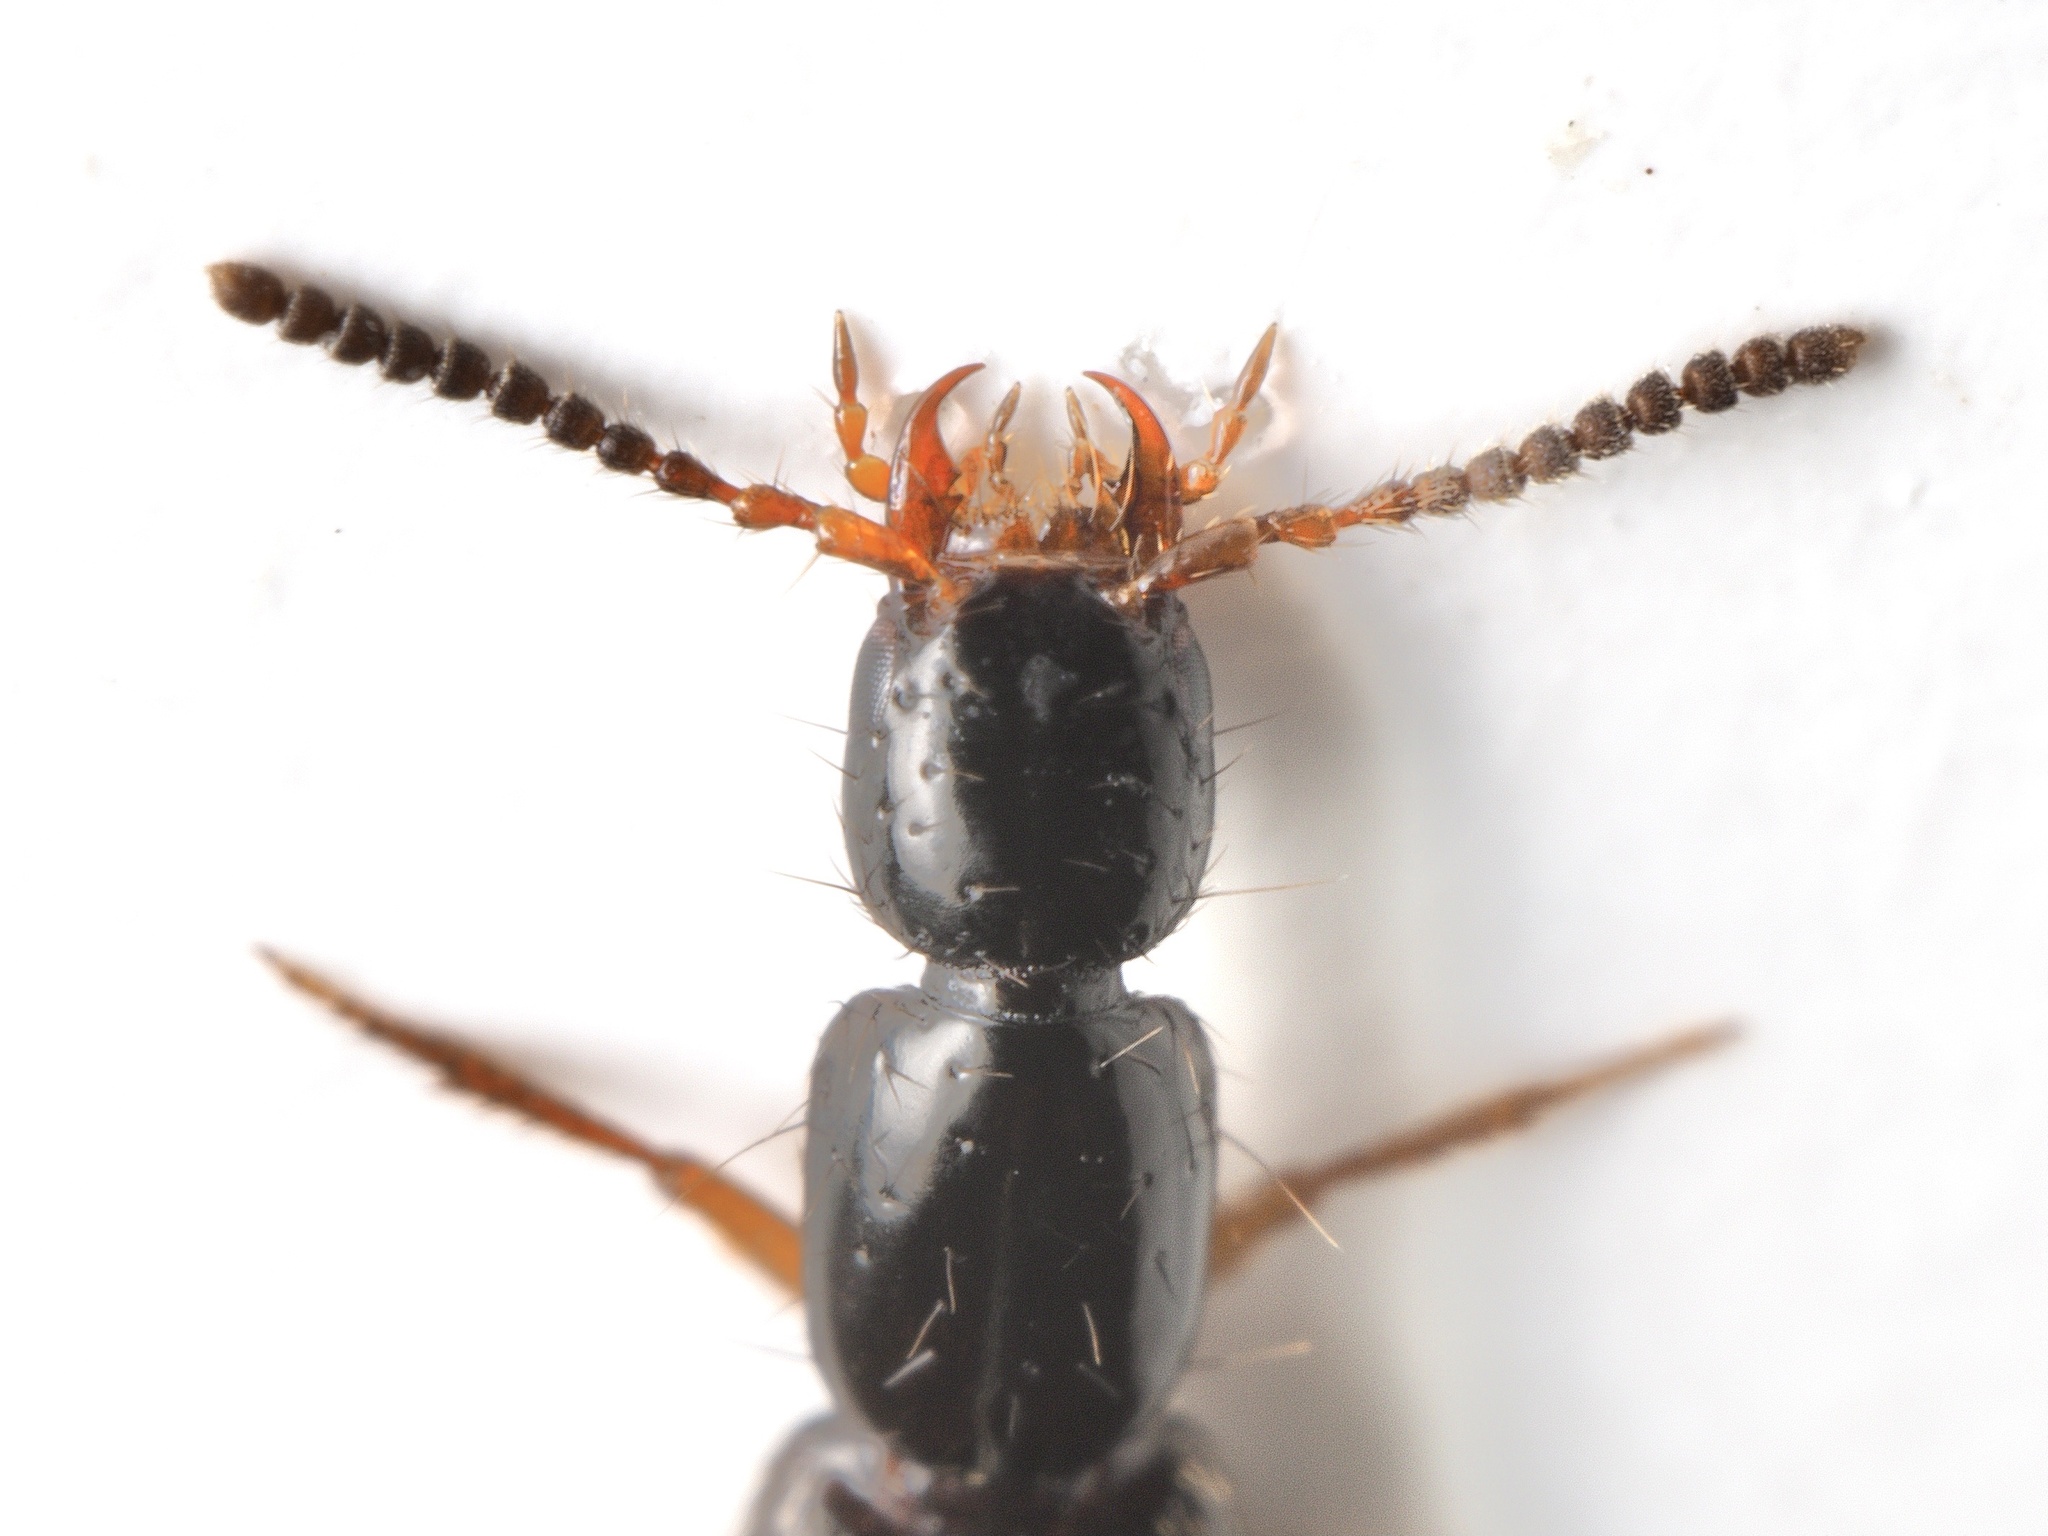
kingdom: Animalia
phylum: Arthropoda
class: Insecta
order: Coleoptera
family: Staphylinidae
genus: Gabrius
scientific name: Gabrius splendidulus
